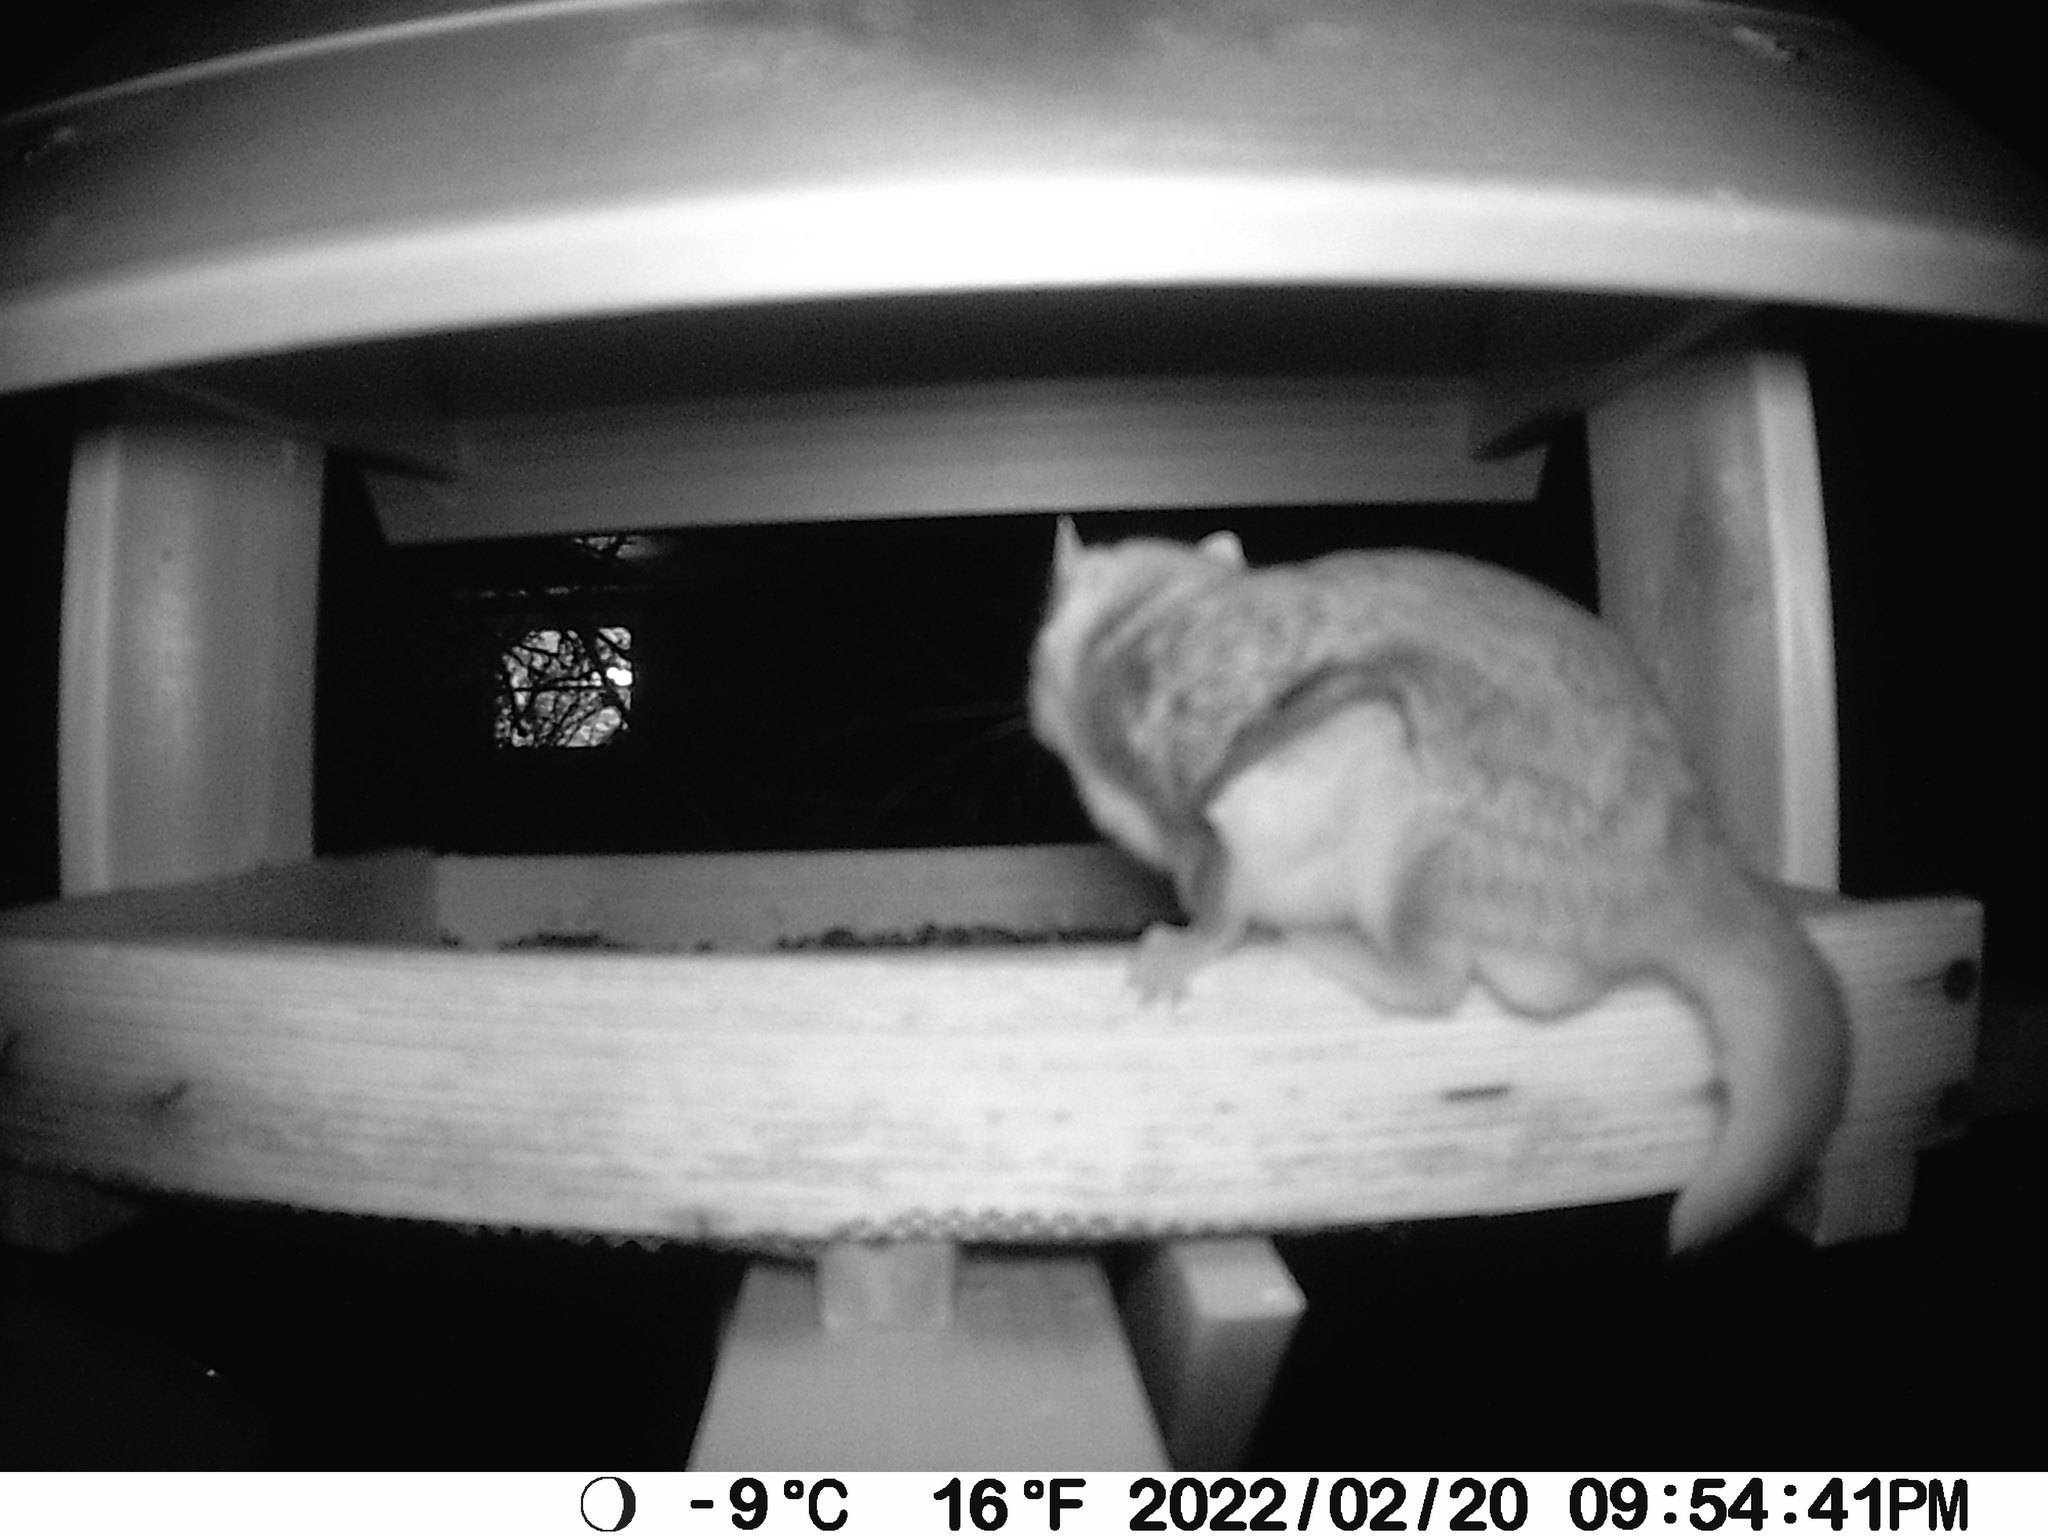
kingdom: Animalia
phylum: Chordata
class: Mammalia
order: Rodentia
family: Sciuridae
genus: Glaucomys
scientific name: Glaucomys sabrinus
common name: Northern flying squirrel
